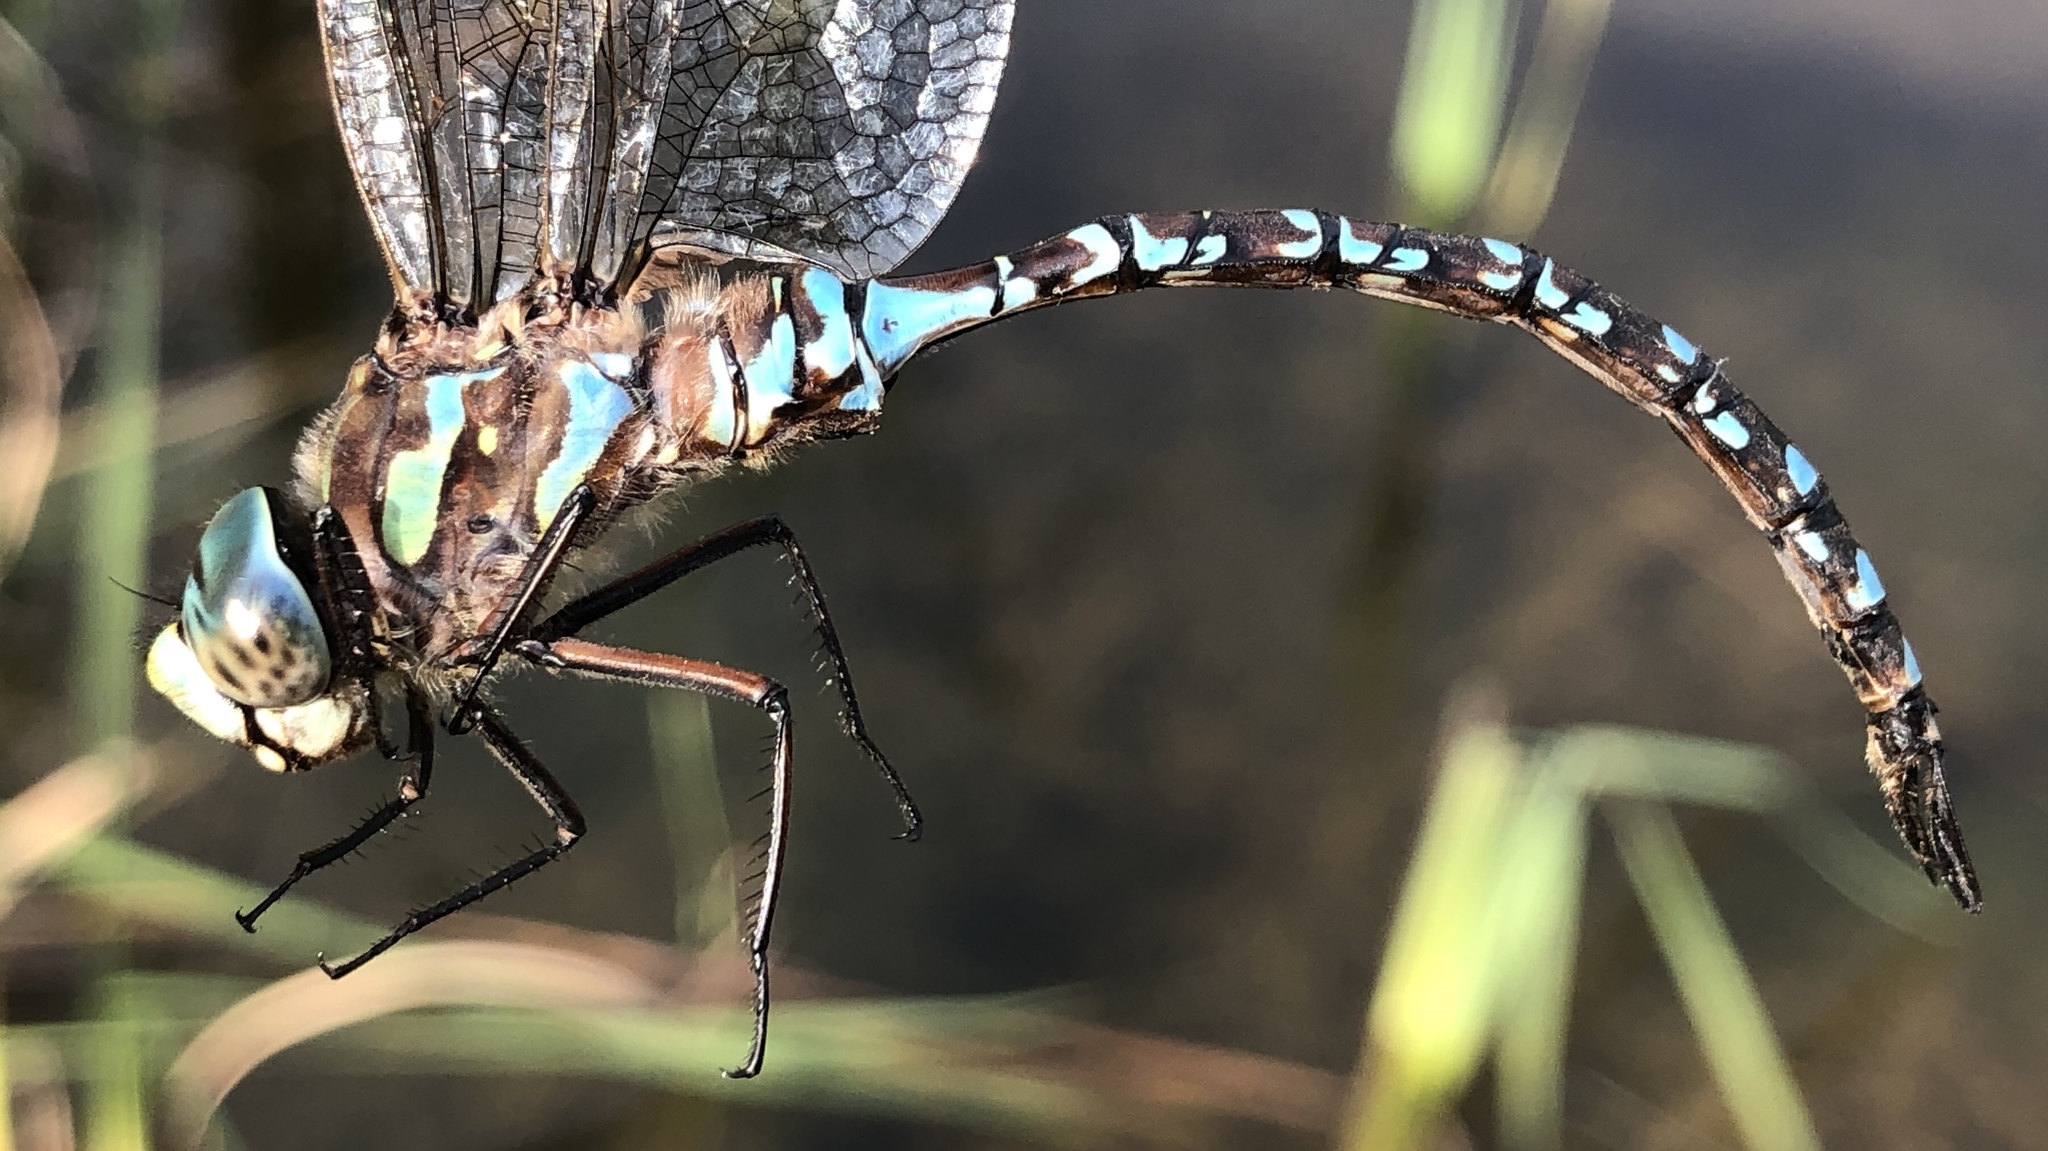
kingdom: Animalia
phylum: Arthropoda
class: Insecta
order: Odonata
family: Aeshnidae
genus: Aeshna
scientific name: Aeshna canadensis
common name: Canada darner
